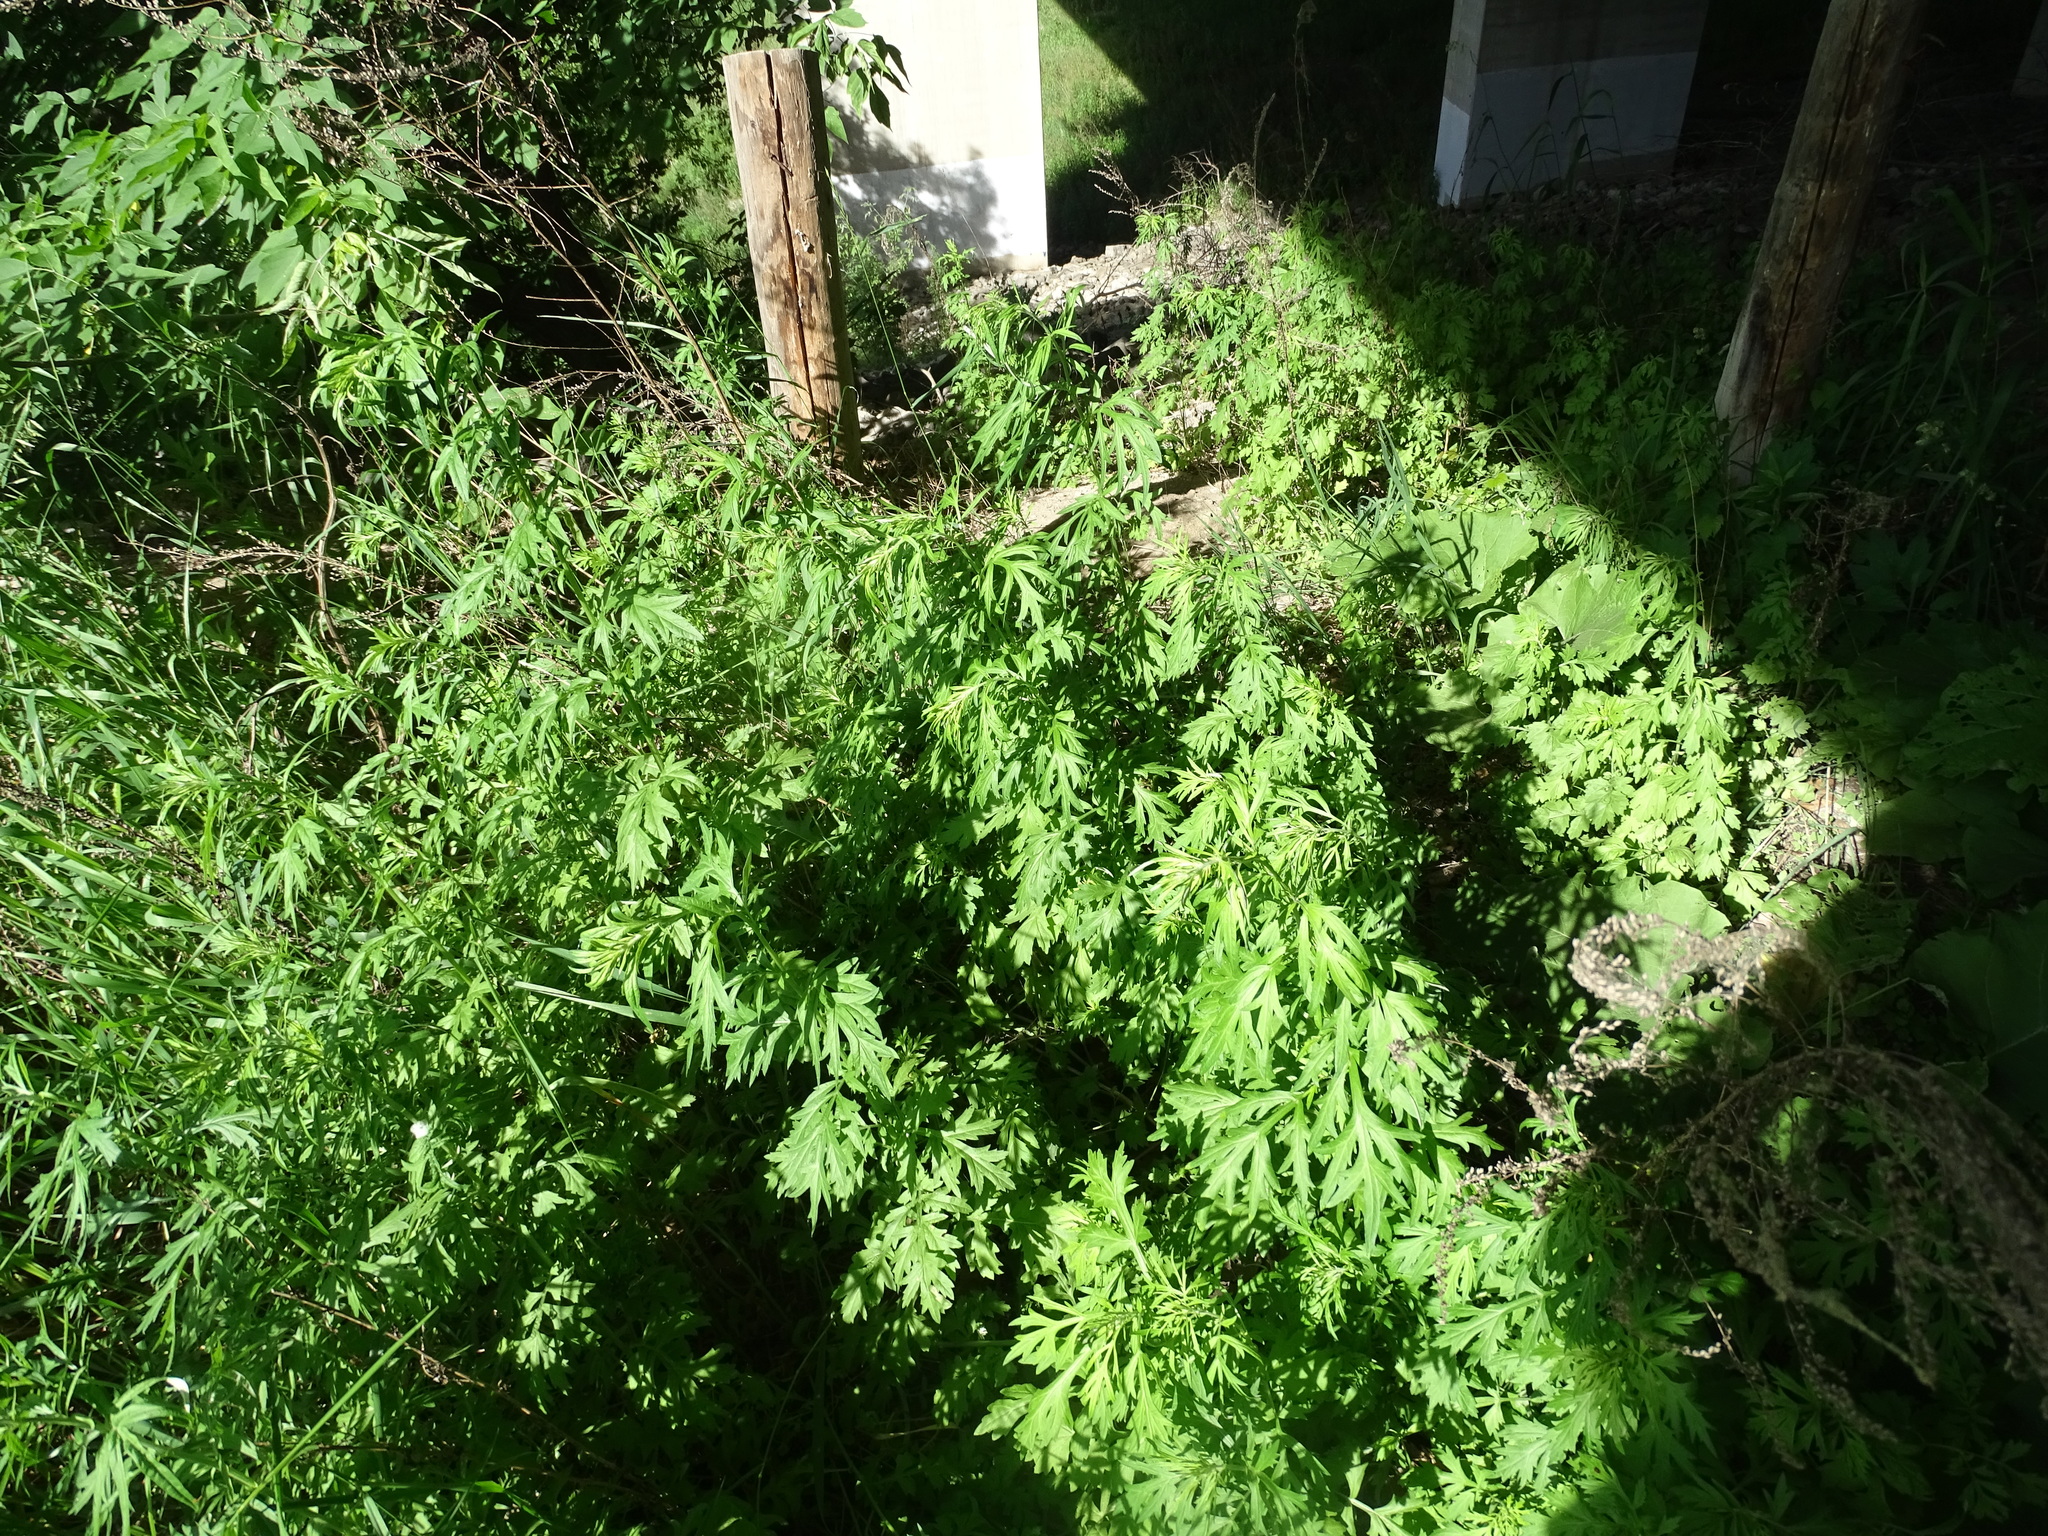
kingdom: Plantae
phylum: Tracheophyta
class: Magnoliopsida
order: Asterales
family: Asteraceae
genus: Artemisia
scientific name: Artemisia vulgaris
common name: Mugwort
